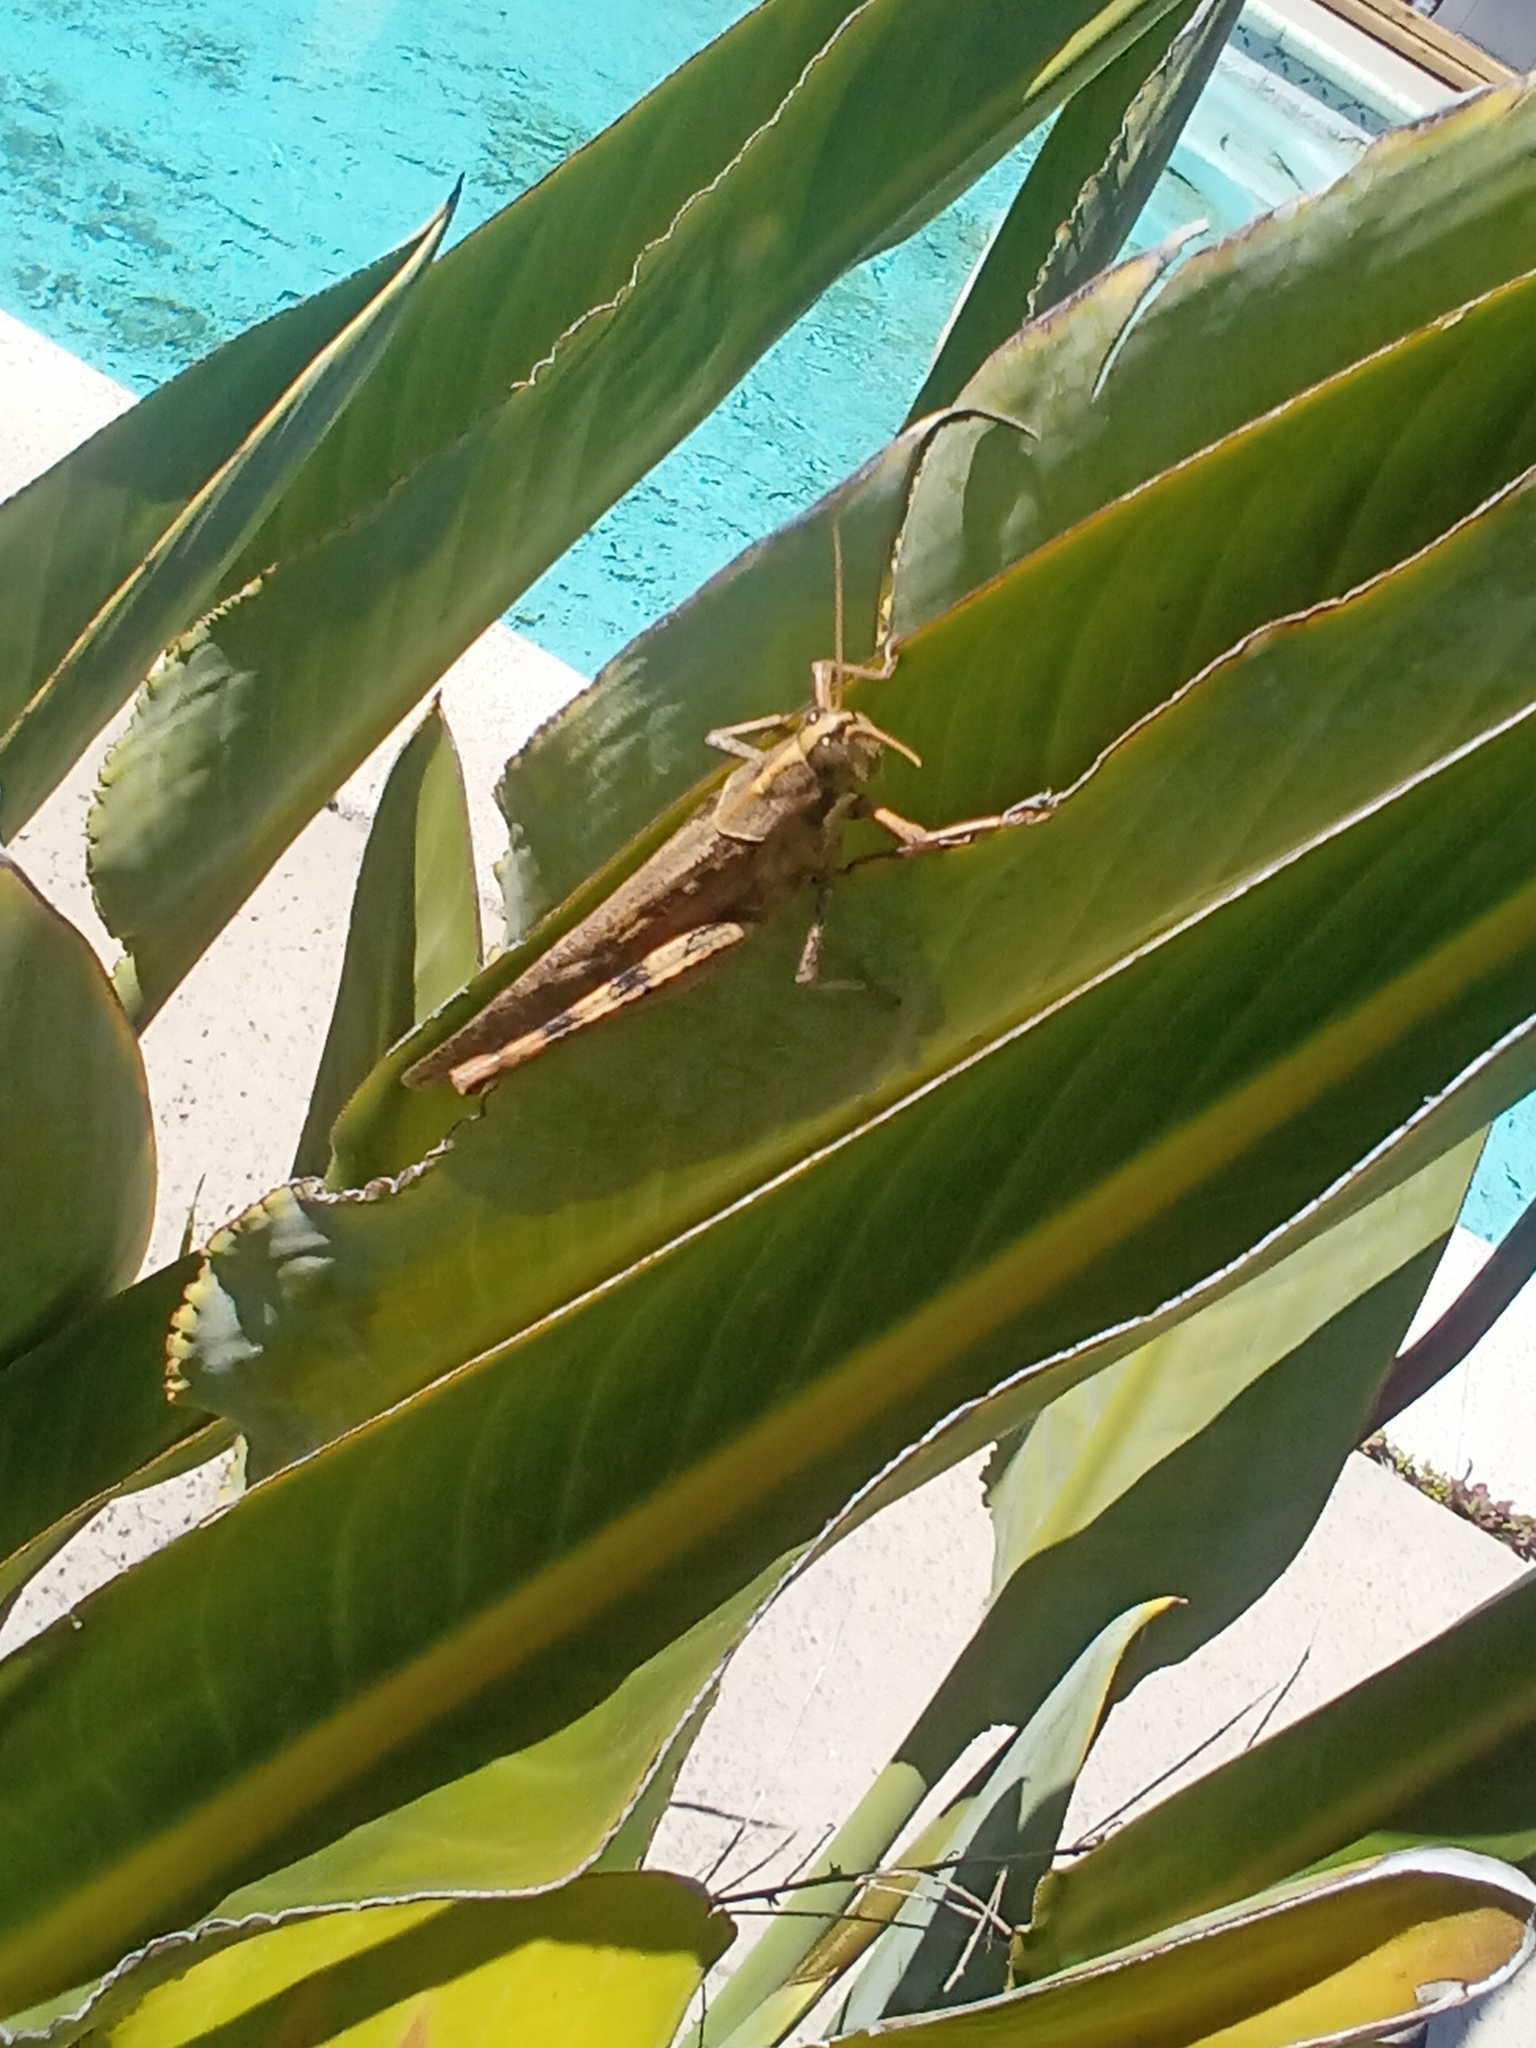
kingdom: Animalia
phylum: Arthropoda
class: Insecta
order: Orthoptera
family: Acrididae
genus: Schistocerca
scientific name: Schistocerca nitens
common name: Vagrant grasshopper
